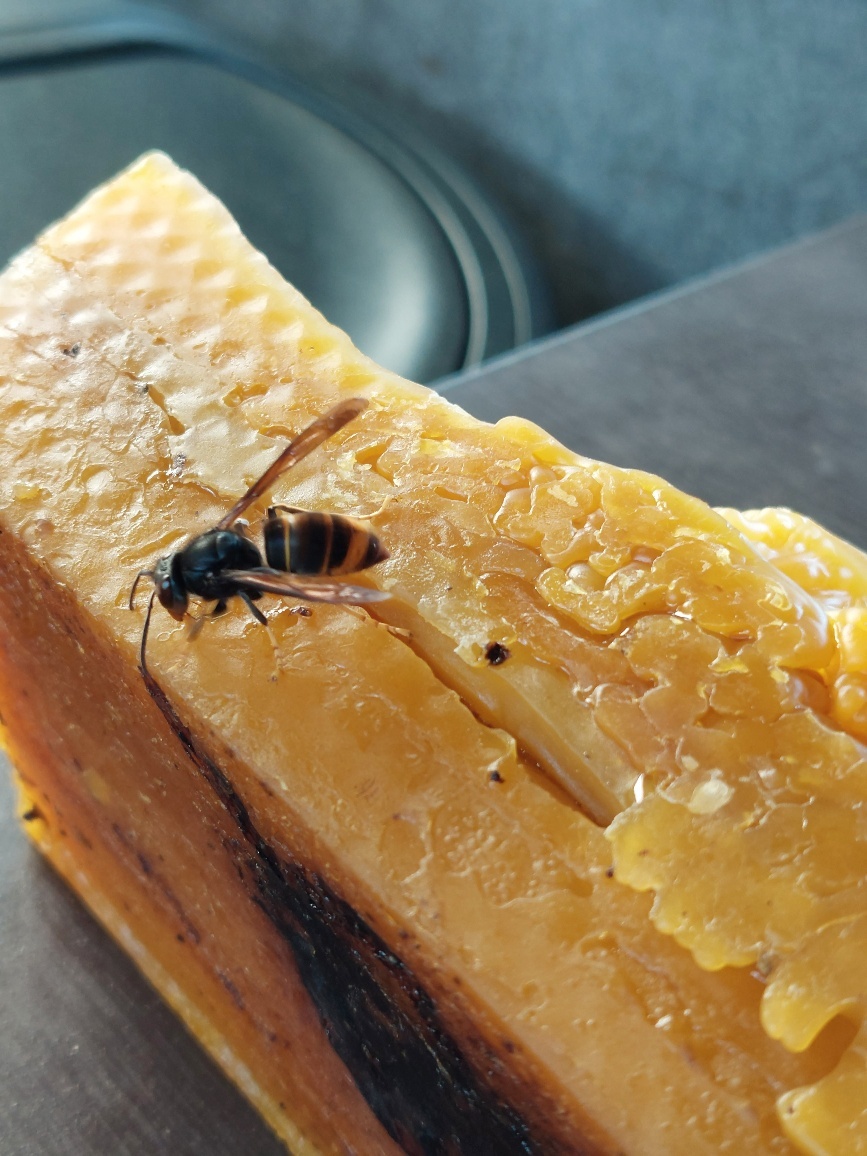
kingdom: Animalia
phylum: Arthropoda
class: Insecta
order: Hymenoptera
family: Vespidae
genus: Vespa
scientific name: Vespa velutina
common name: Asian hornet
